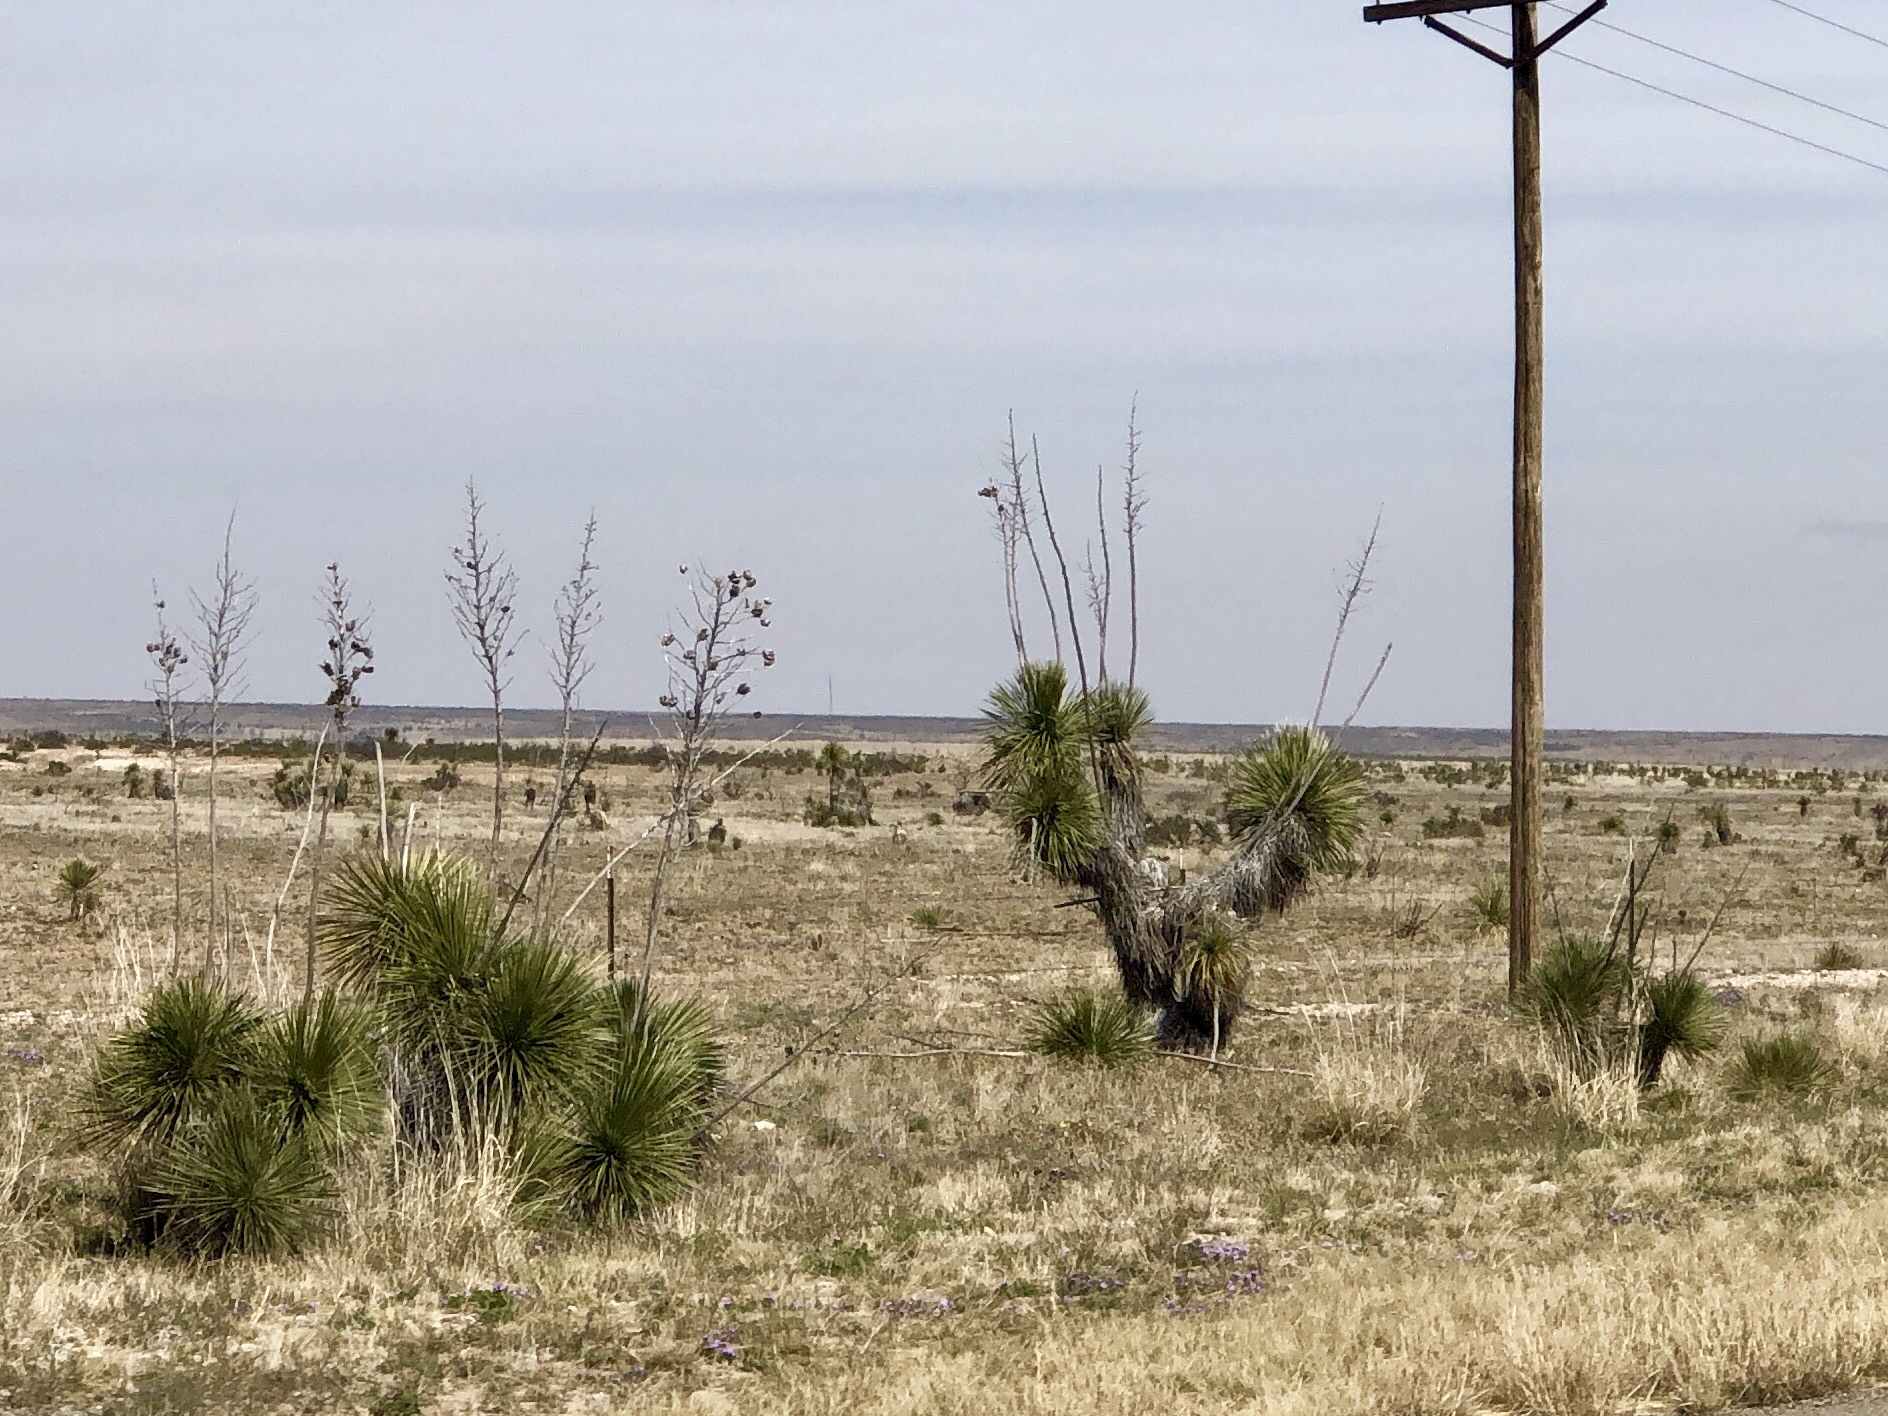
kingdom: Plantae
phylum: Tracheophyta
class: Liliopsida
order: Asparagales
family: Asparagaceae
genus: Yucca
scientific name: Yucca elata
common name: Palmella
